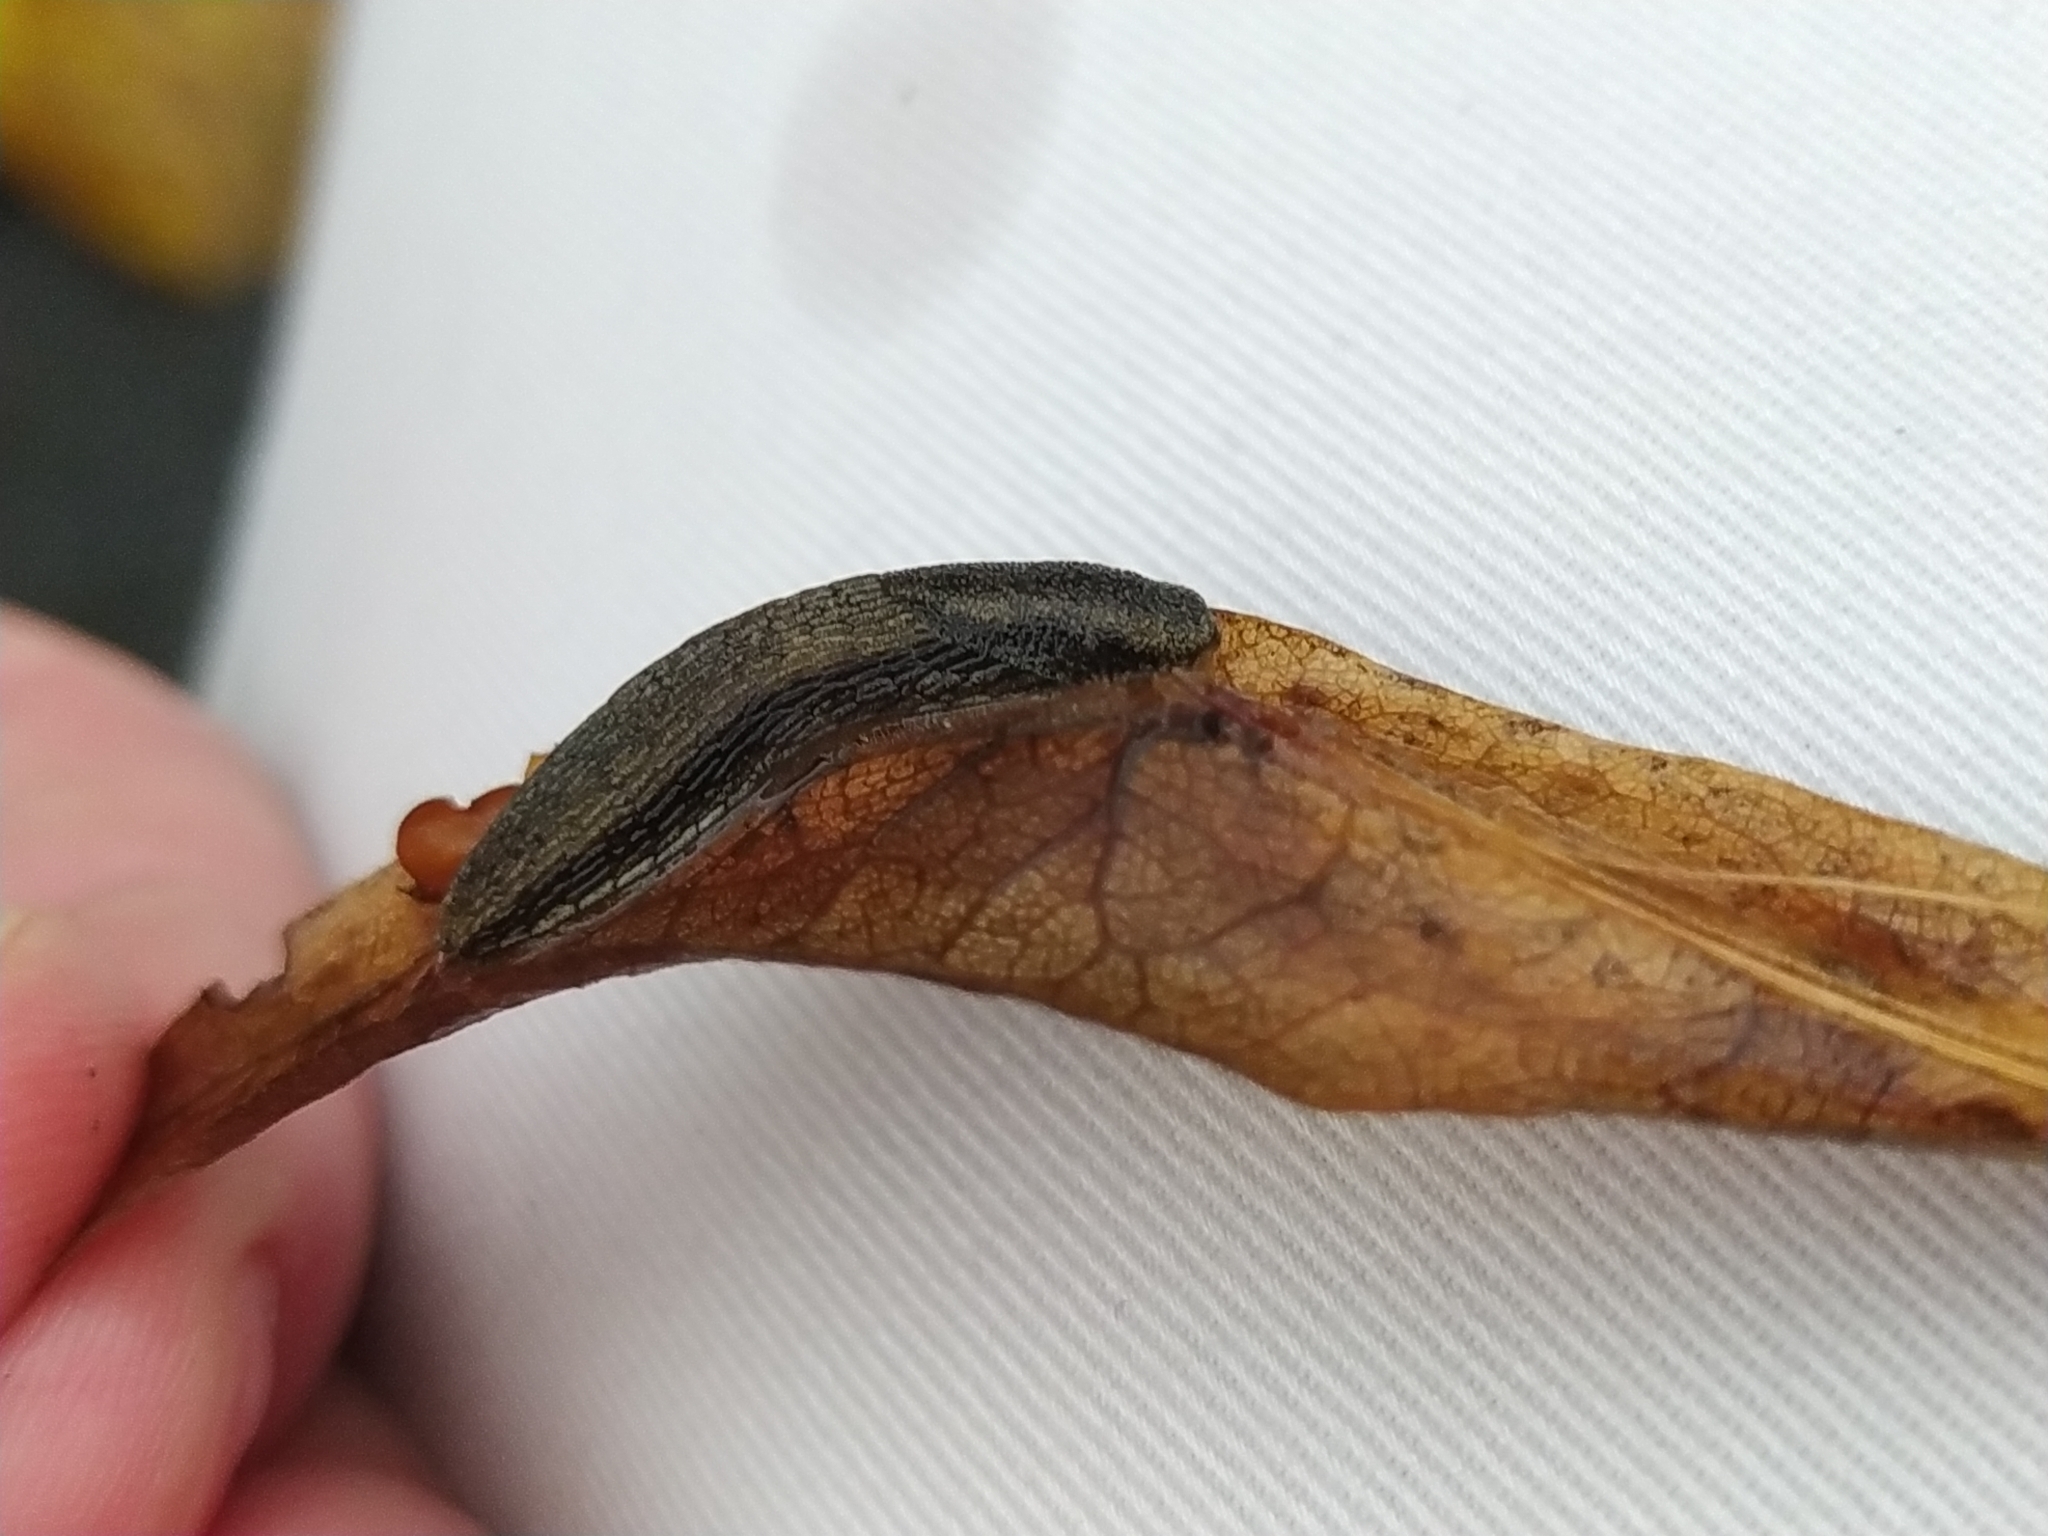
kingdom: Animalia
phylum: Mollusca
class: Gastropoda
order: Stylommatophora
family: Arionidae
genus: Arion
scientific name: Arion distinctus
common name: Darkface arion
